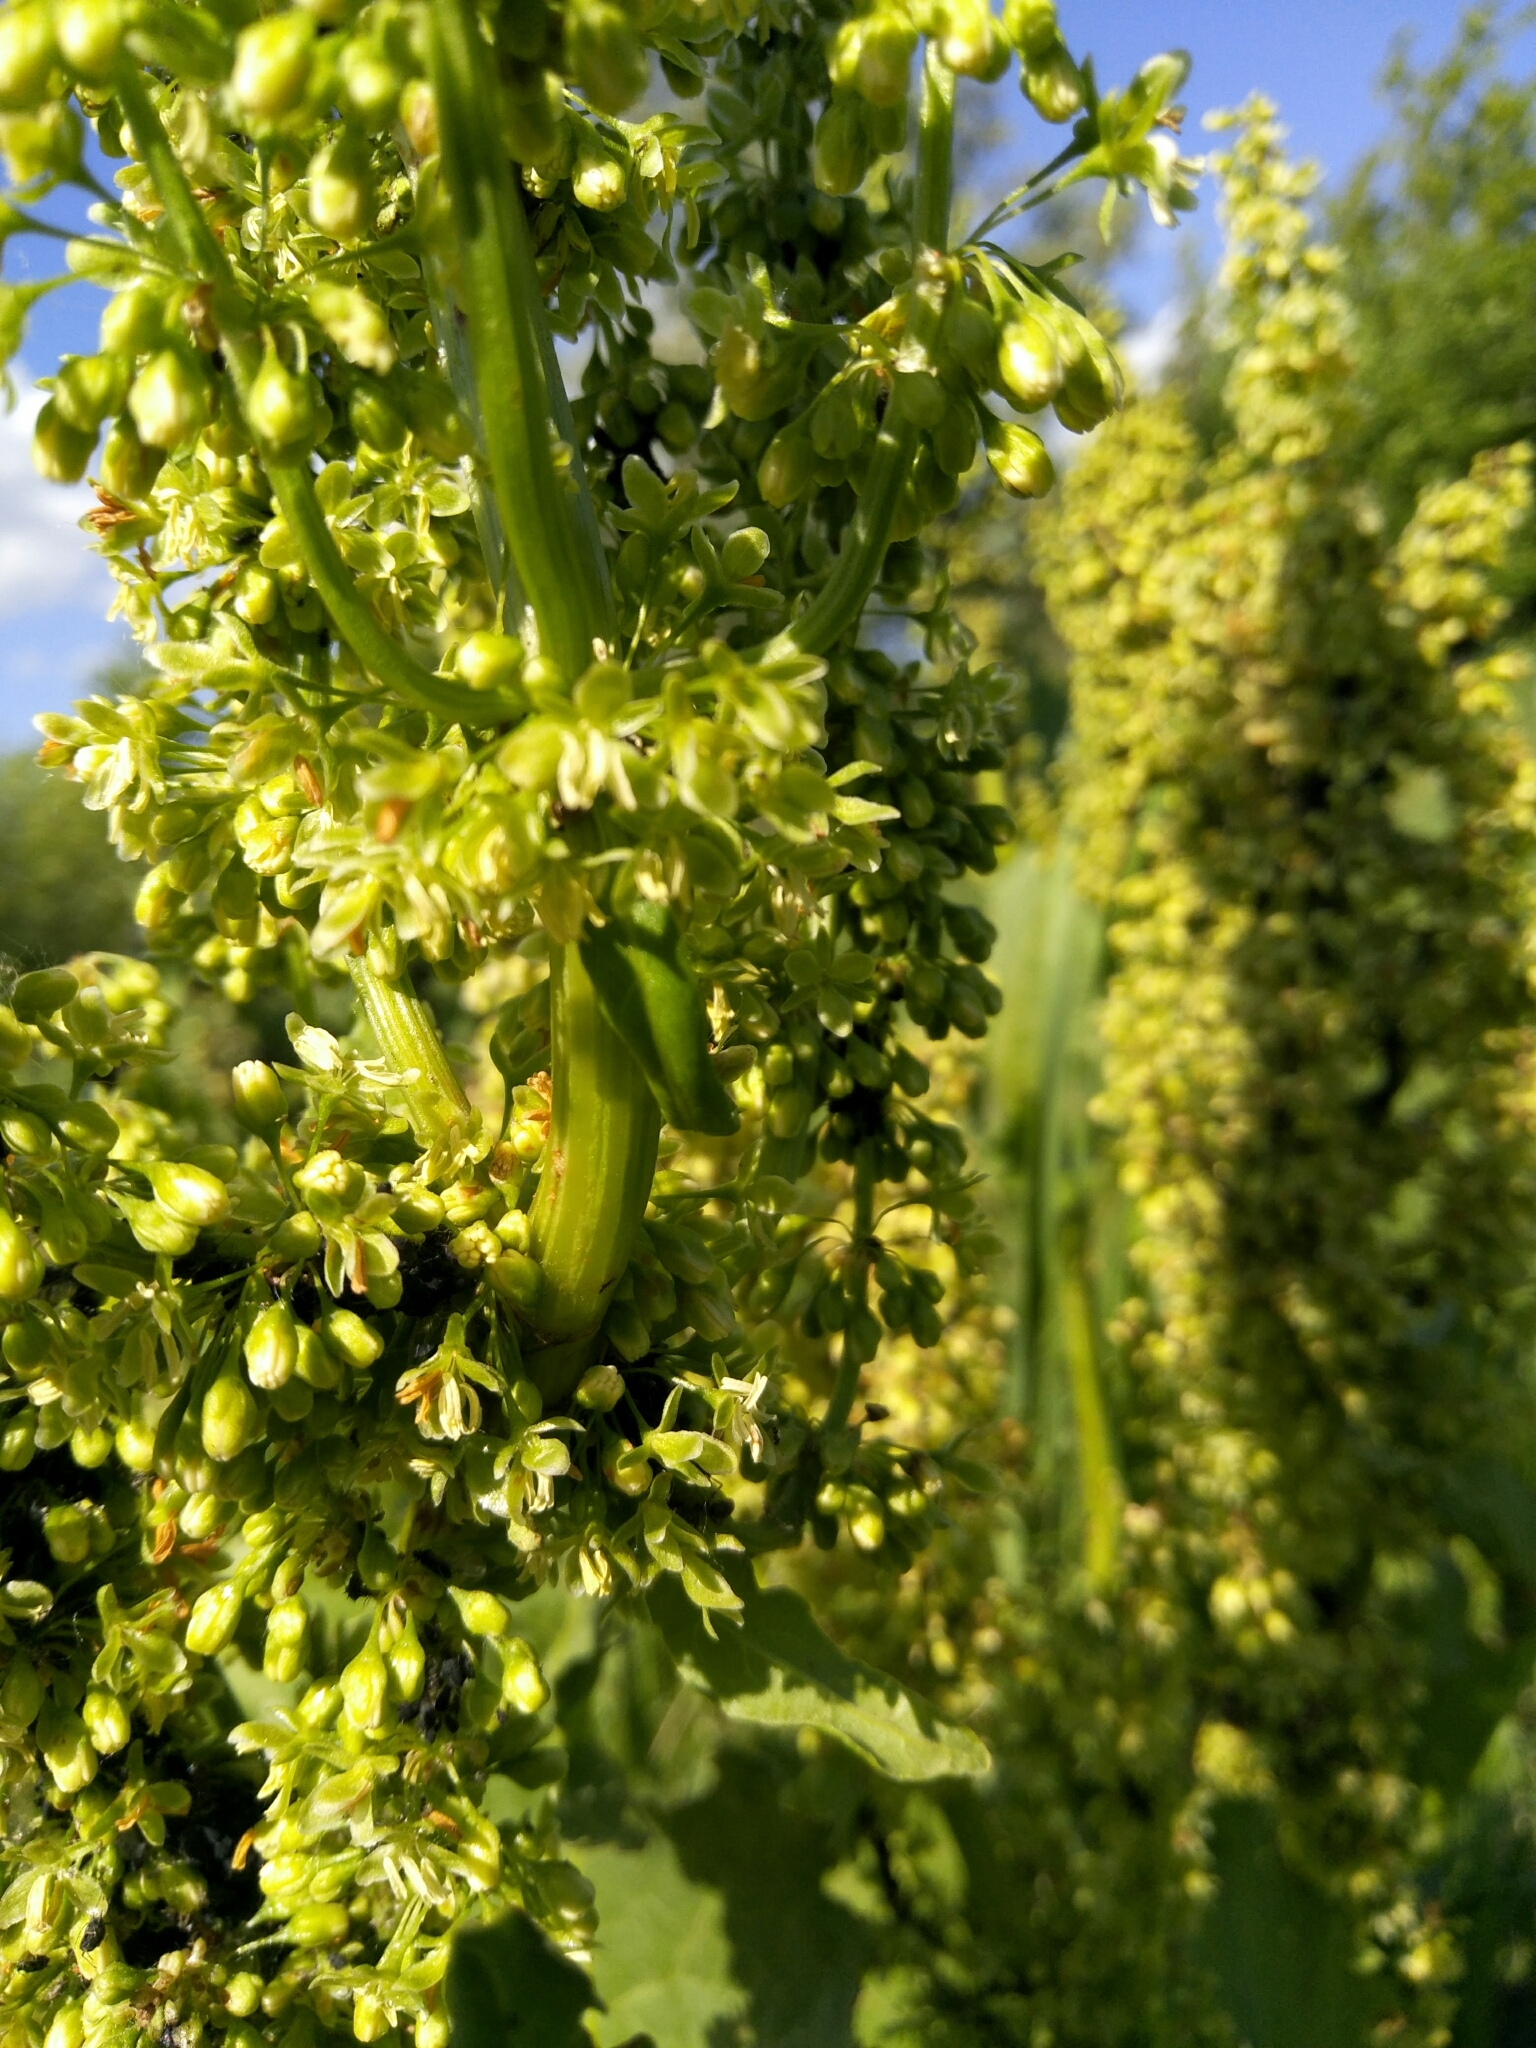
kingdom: Plantae
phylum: Tracheophyta
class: Magnoliopsida
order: Caryophyllales
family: Polygonaceae
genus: Rumex
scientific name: Rumex confertus
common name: Russian dock
